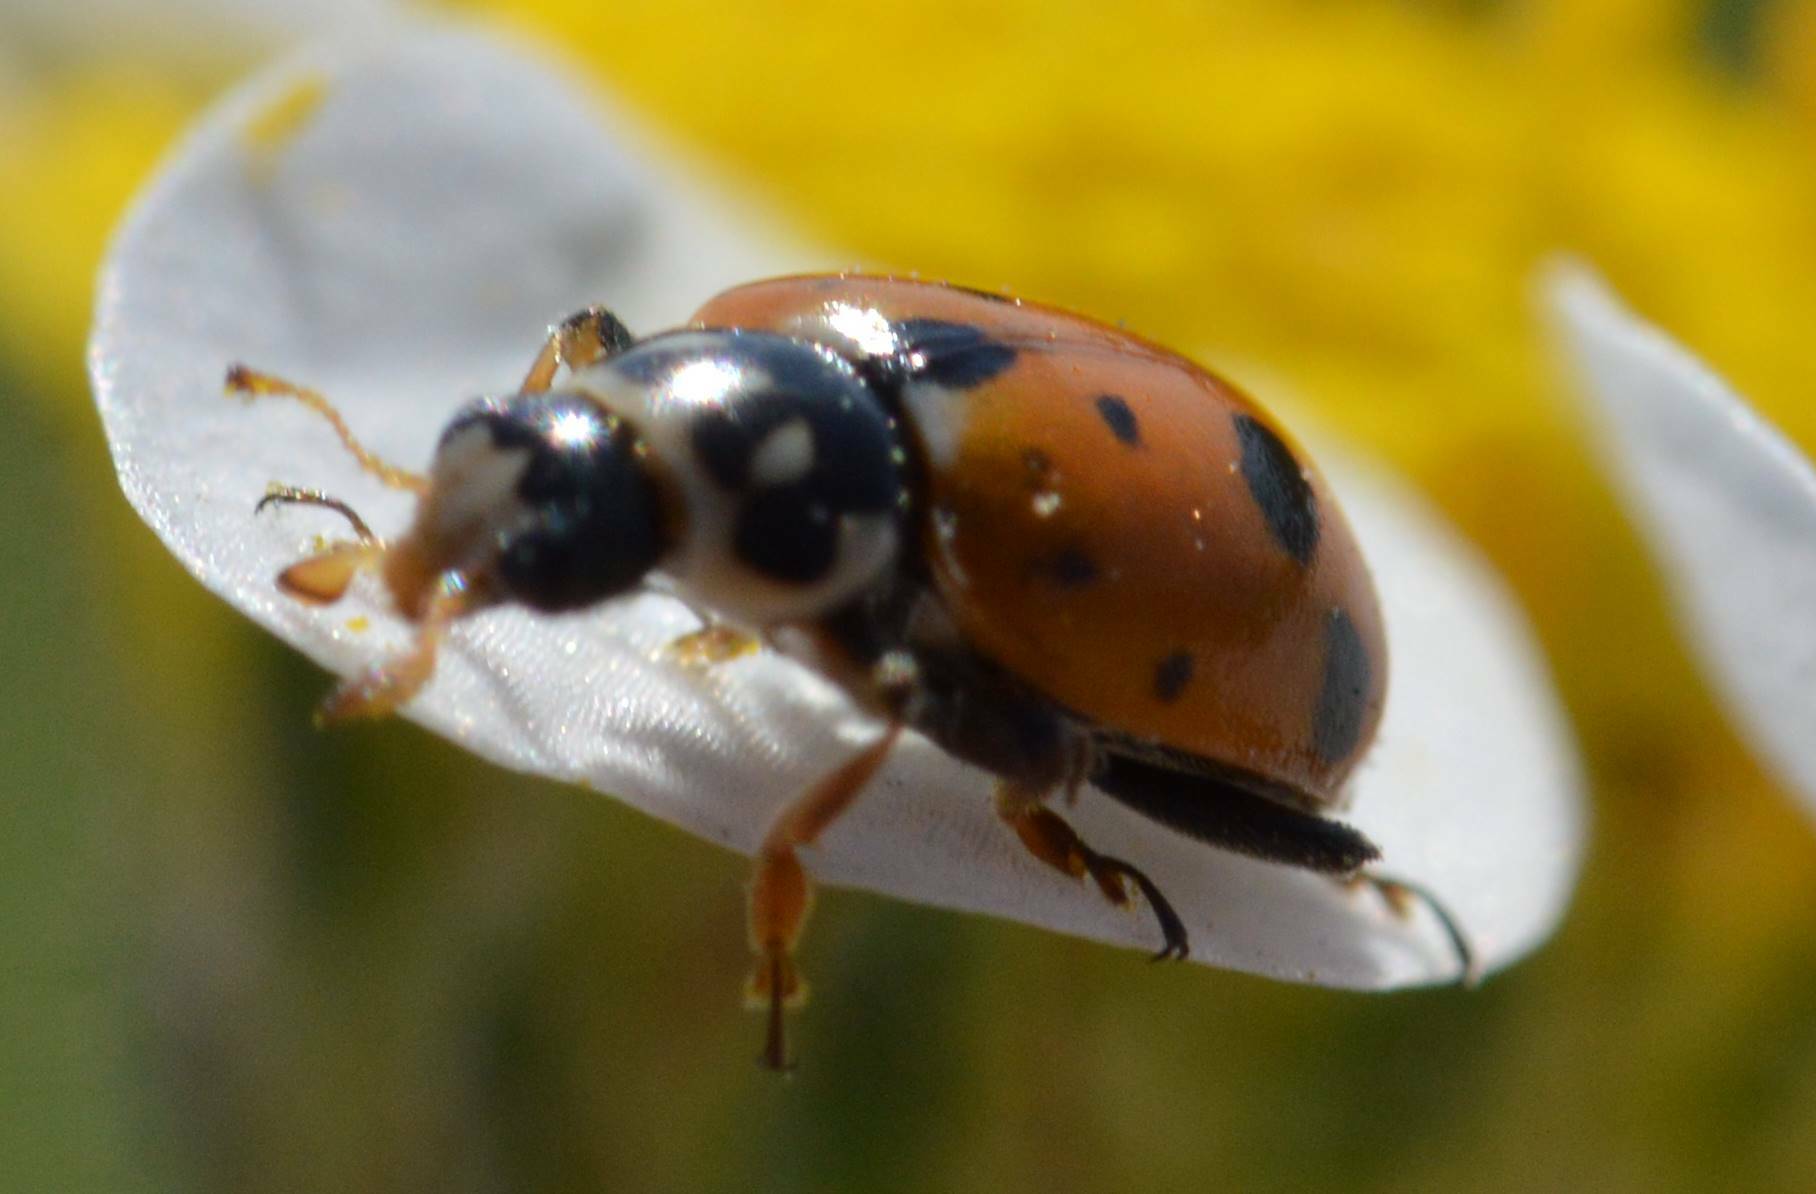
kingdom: Animalia
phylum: Arthropoda
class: Insecta
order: Coleoptera
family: Coccinellidae
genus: Hippodamia
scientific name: Hippodamia variegata
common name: Ladybird beetle
